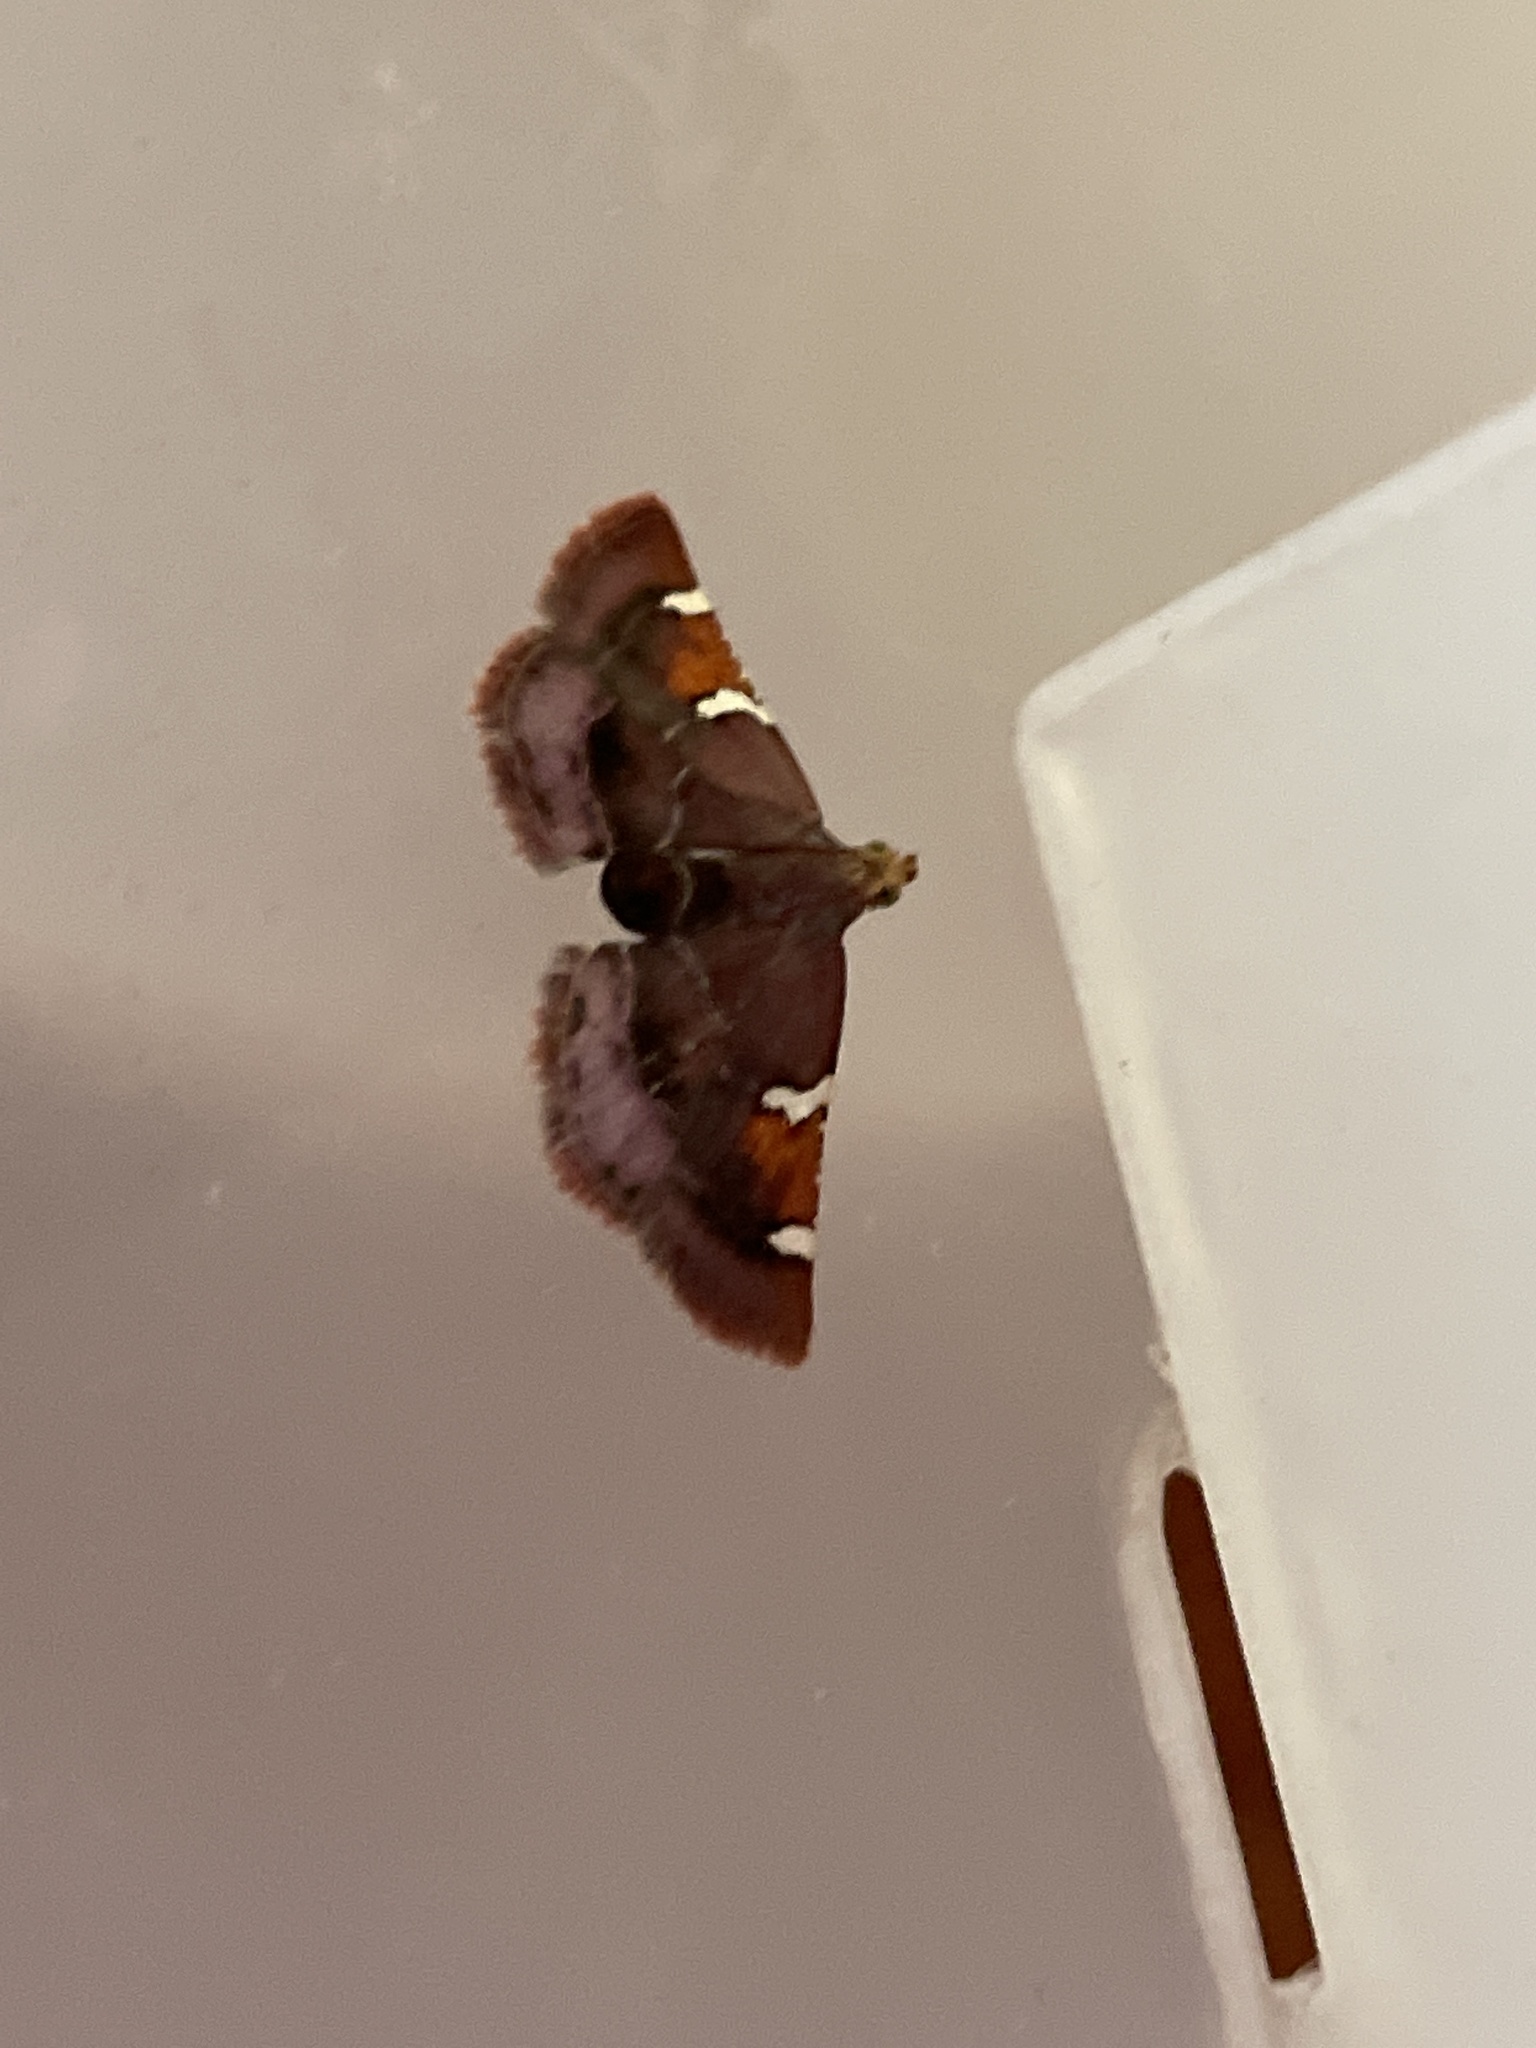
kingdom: Animalia
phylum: Arthropoda
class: Insecta
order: Lepidoptera
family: Pyralidae
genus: Pyralis
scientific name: Pyralis cardinalis
